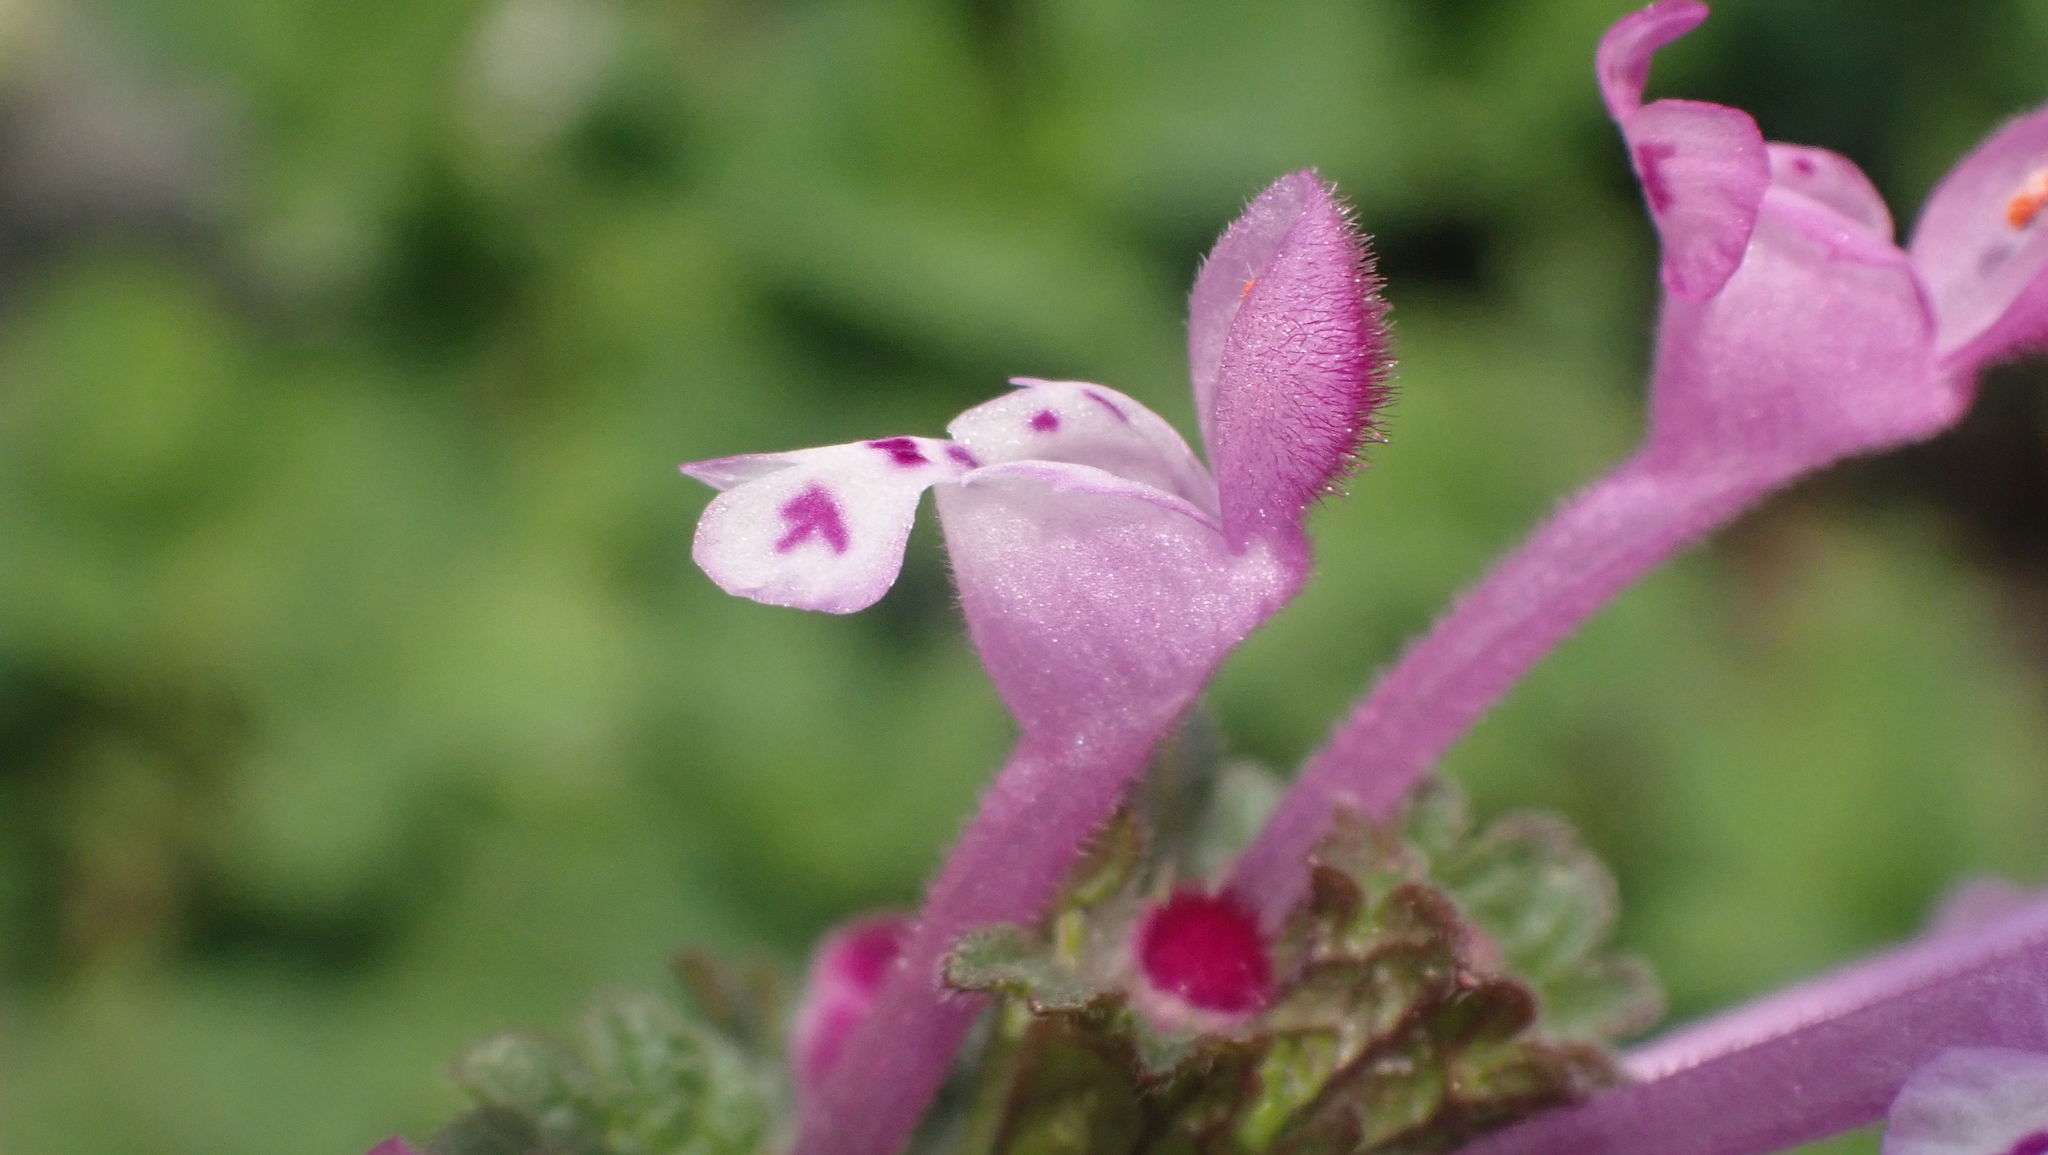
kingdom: Plantae
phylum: Tracheophyta
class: Magnoliopsida
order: Lamiales
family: Lamiaceae
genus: Lamium
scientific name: Lamium amplexicaule
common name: Henbit dead-nettle
